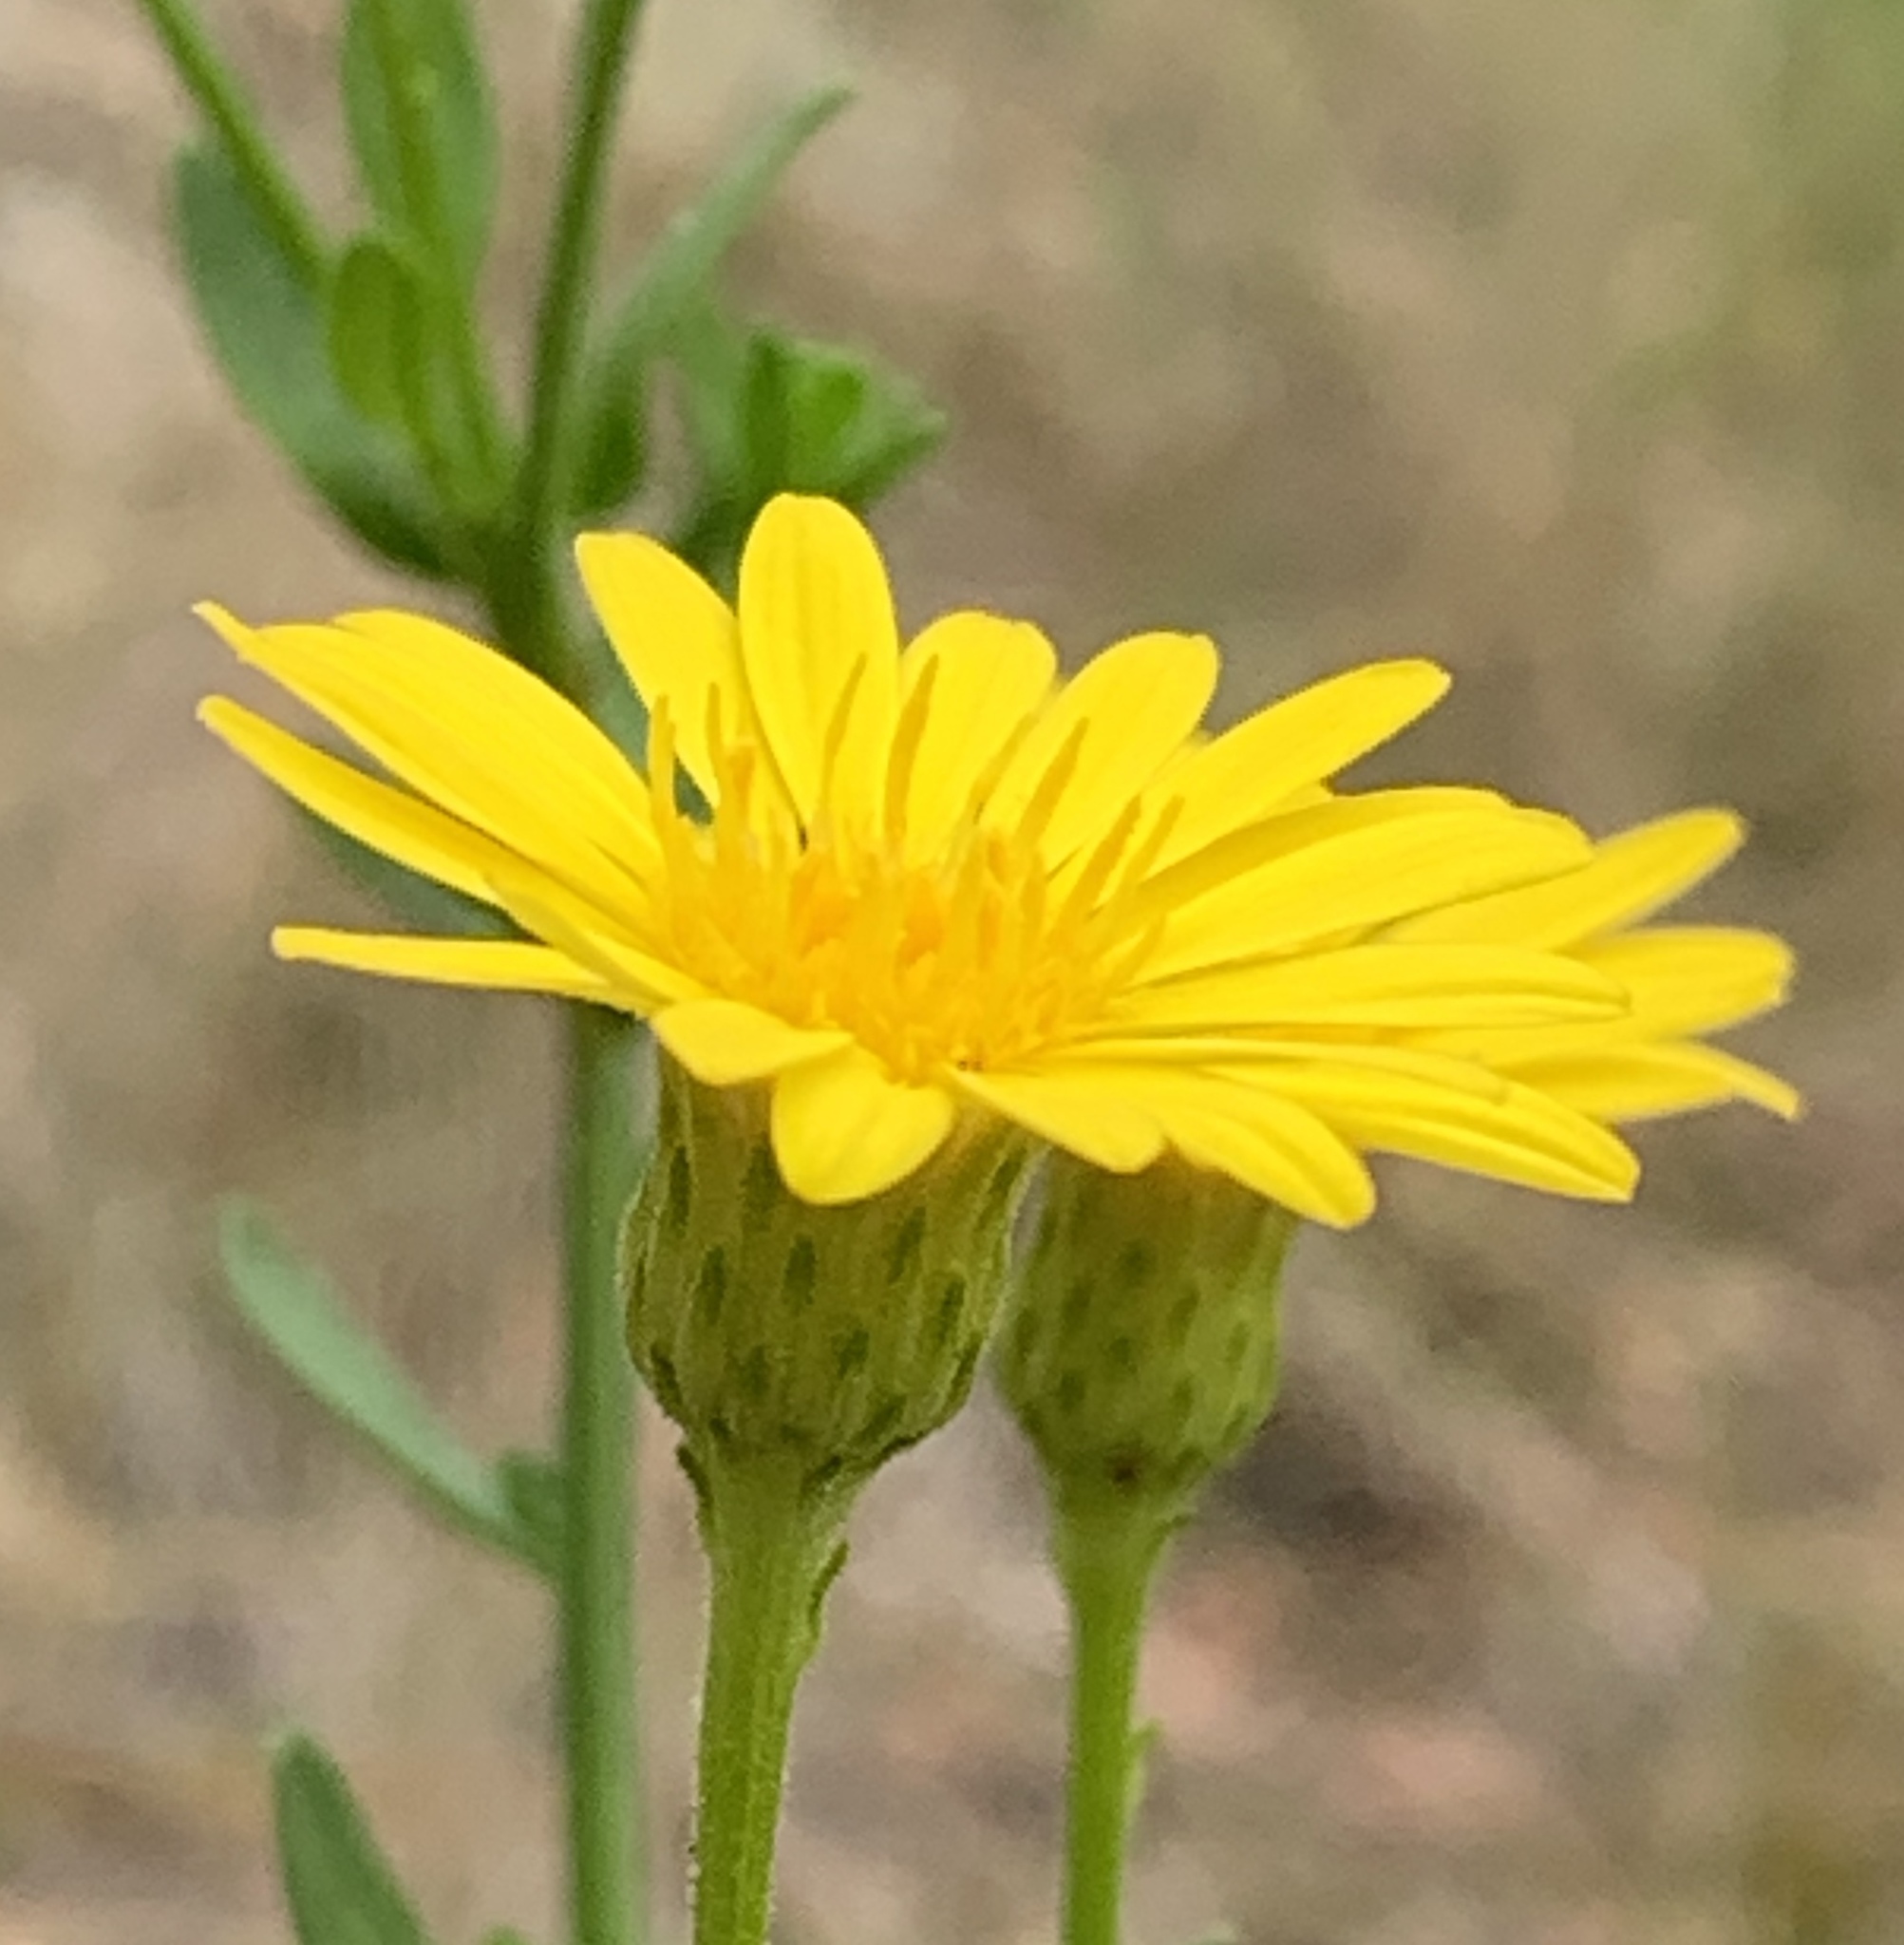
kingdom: Plantae
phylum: Tracheophyta
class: Magnoliopsida
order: Asterales
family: Asteraceae
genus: Chrysopsis
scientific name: Chrysopsis scabrella
